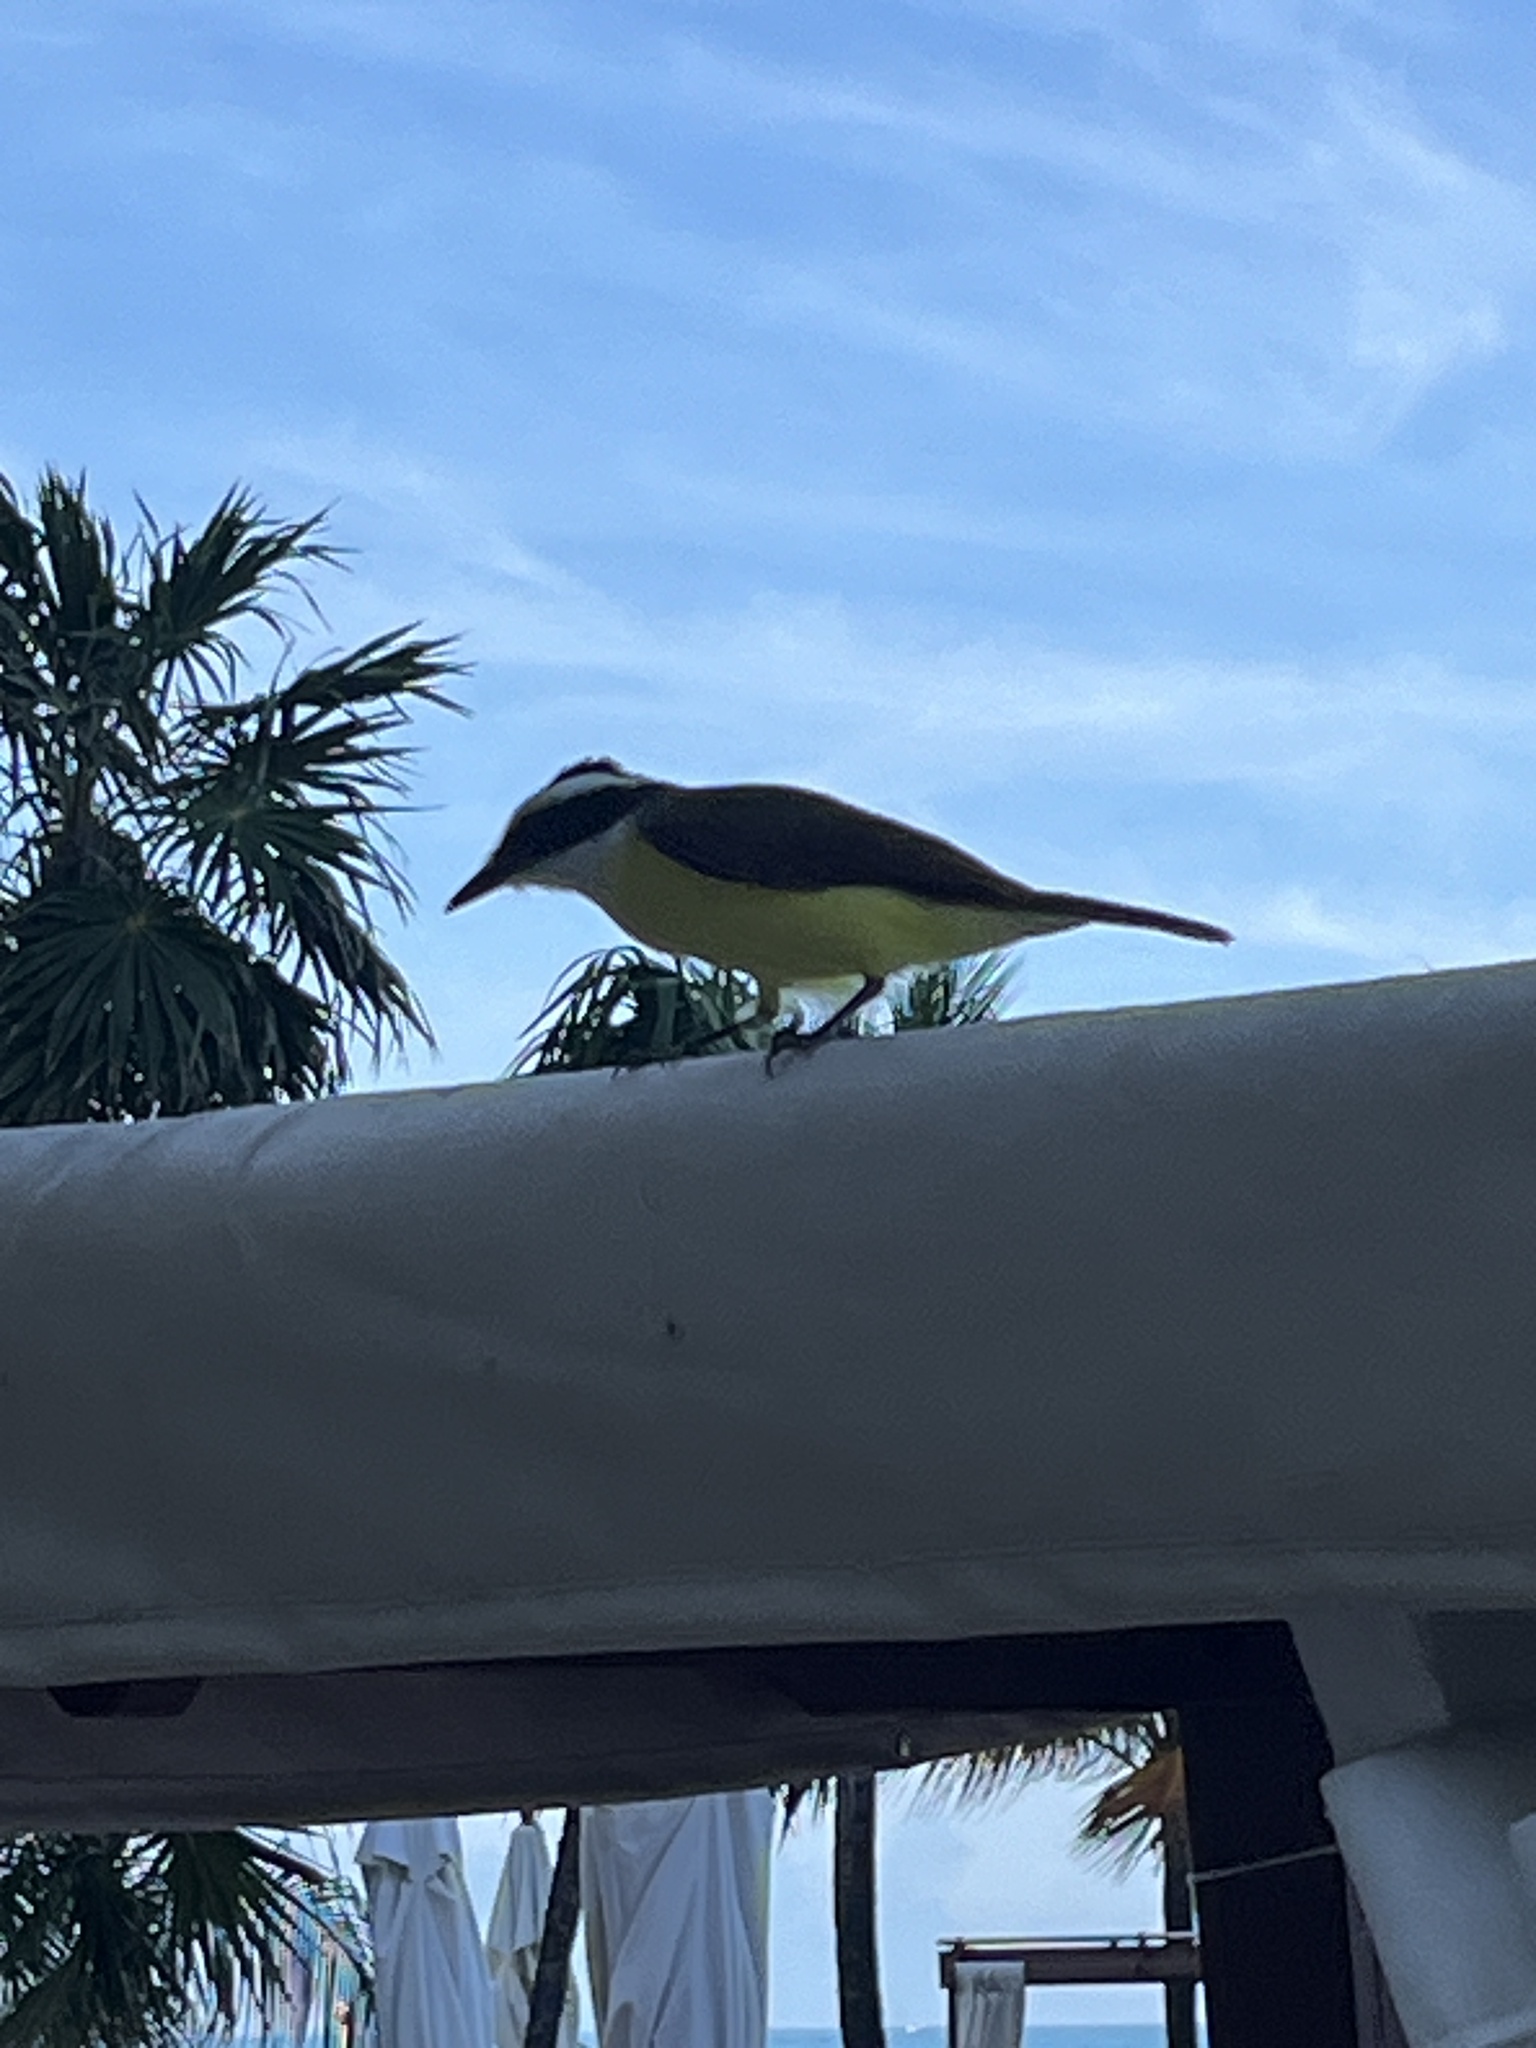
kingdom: Animalia
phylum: Chordata
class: Aves
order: Passeriformes
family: Tyrannidae
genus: Pitangus
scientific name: Pitangus sulphuratus
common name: Great kiskadee
